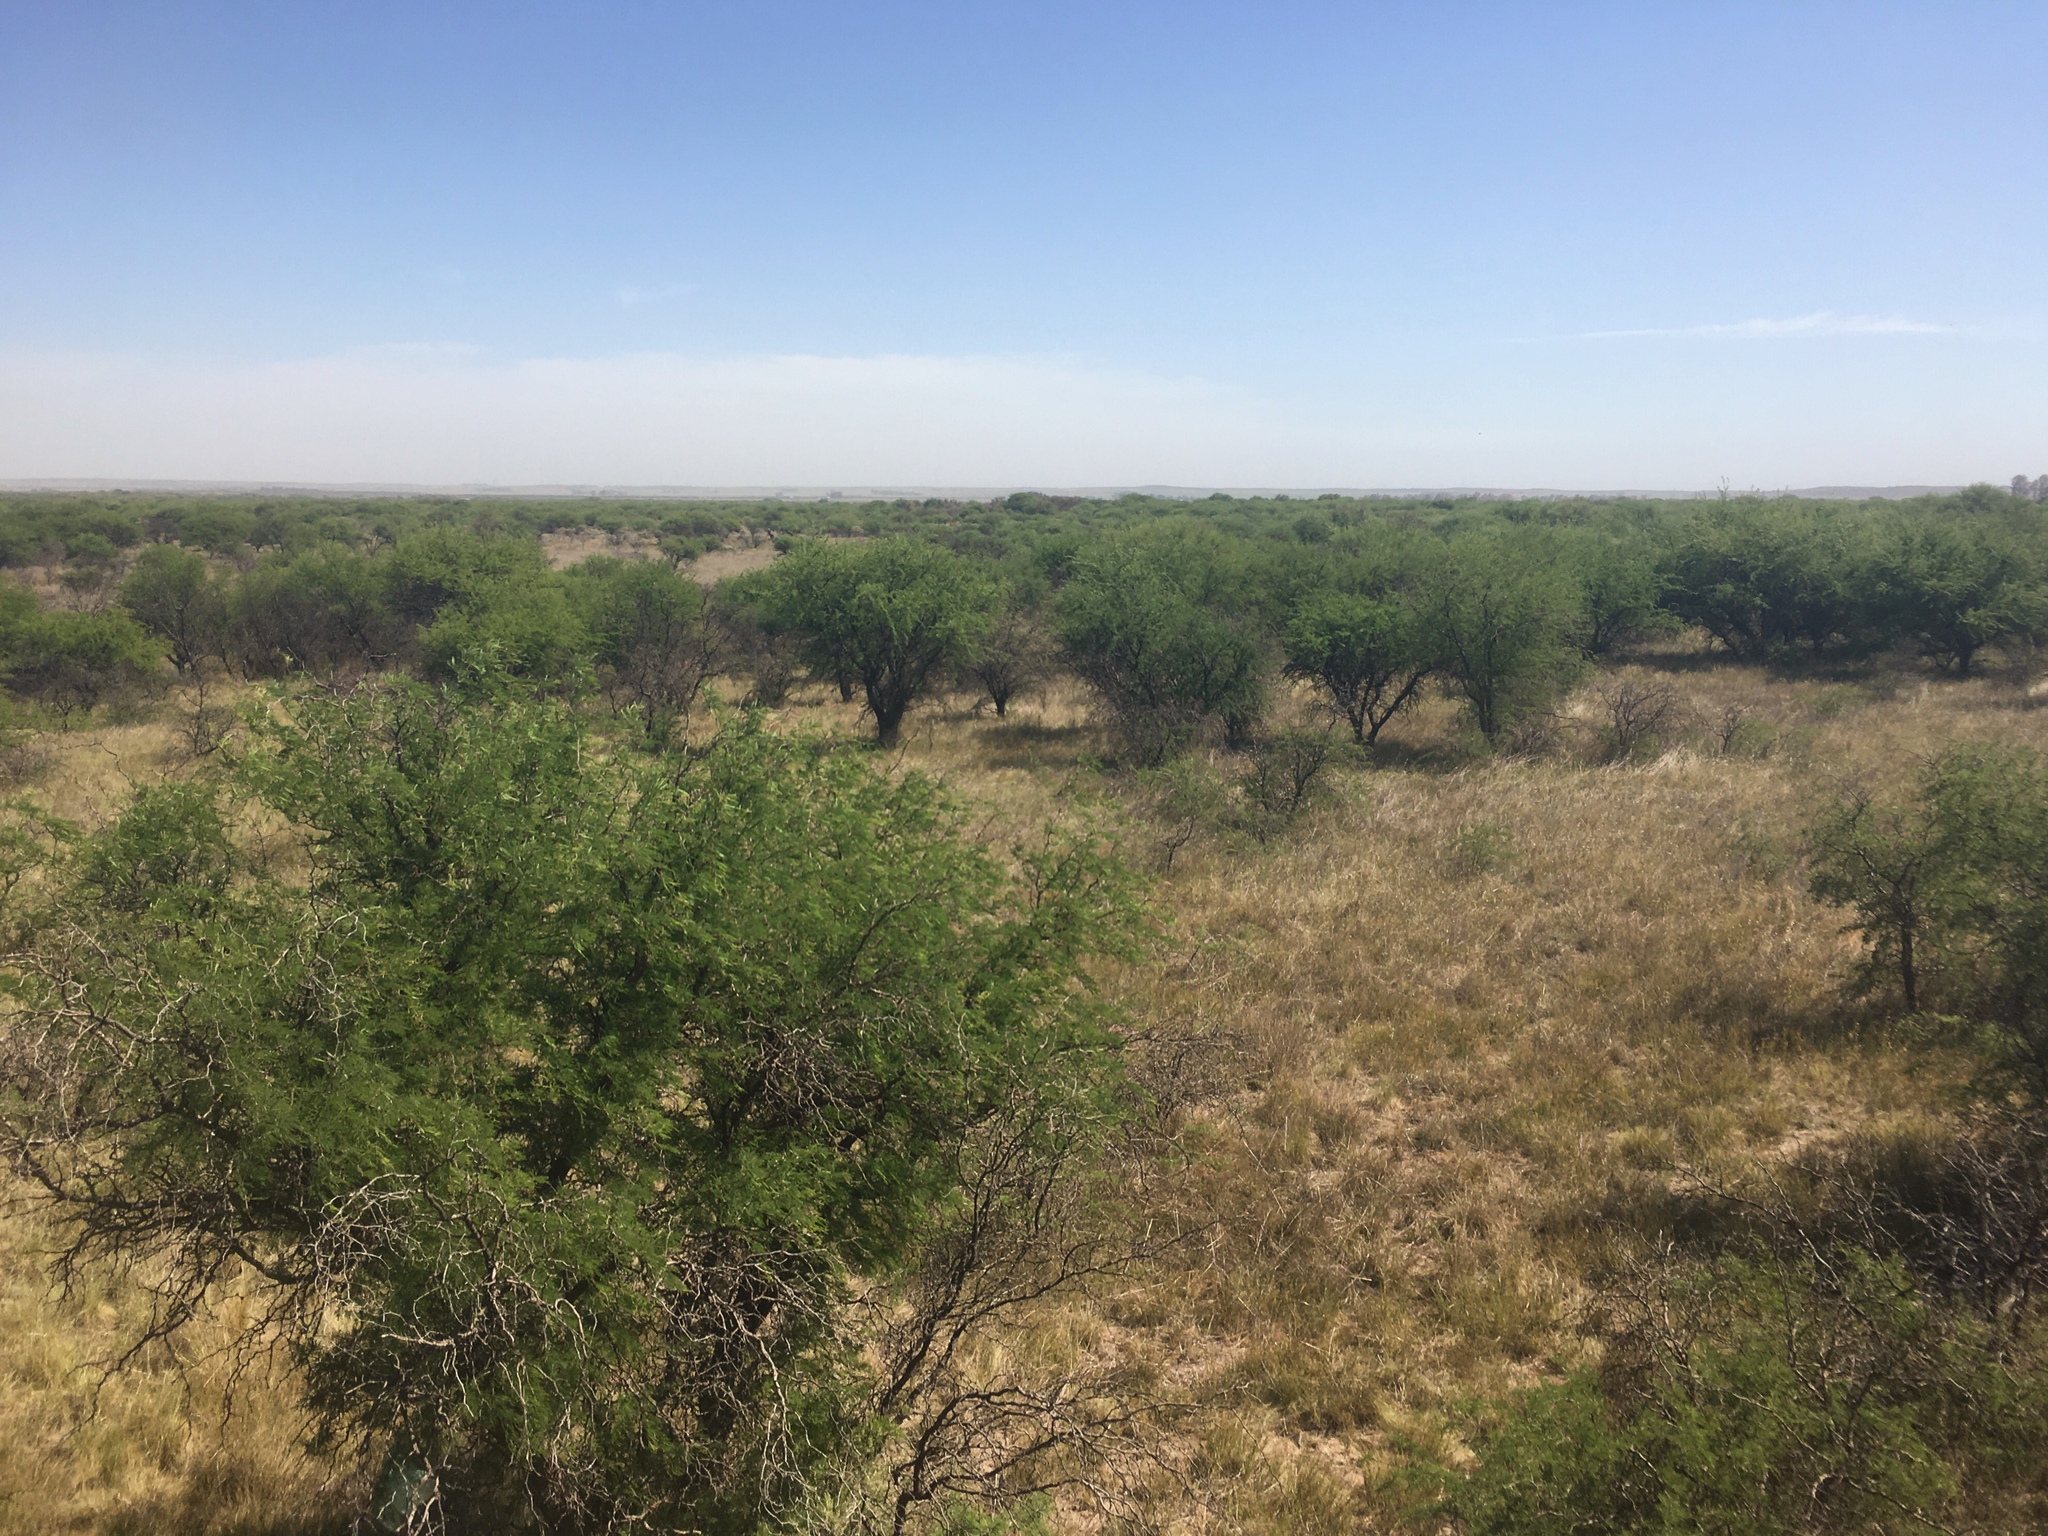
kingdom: Plantae
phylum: Tracheophyta
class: Magnoliopsida
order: Fabales
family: Fabaceae
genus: Prosopis
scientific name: Prosopis caldenia
